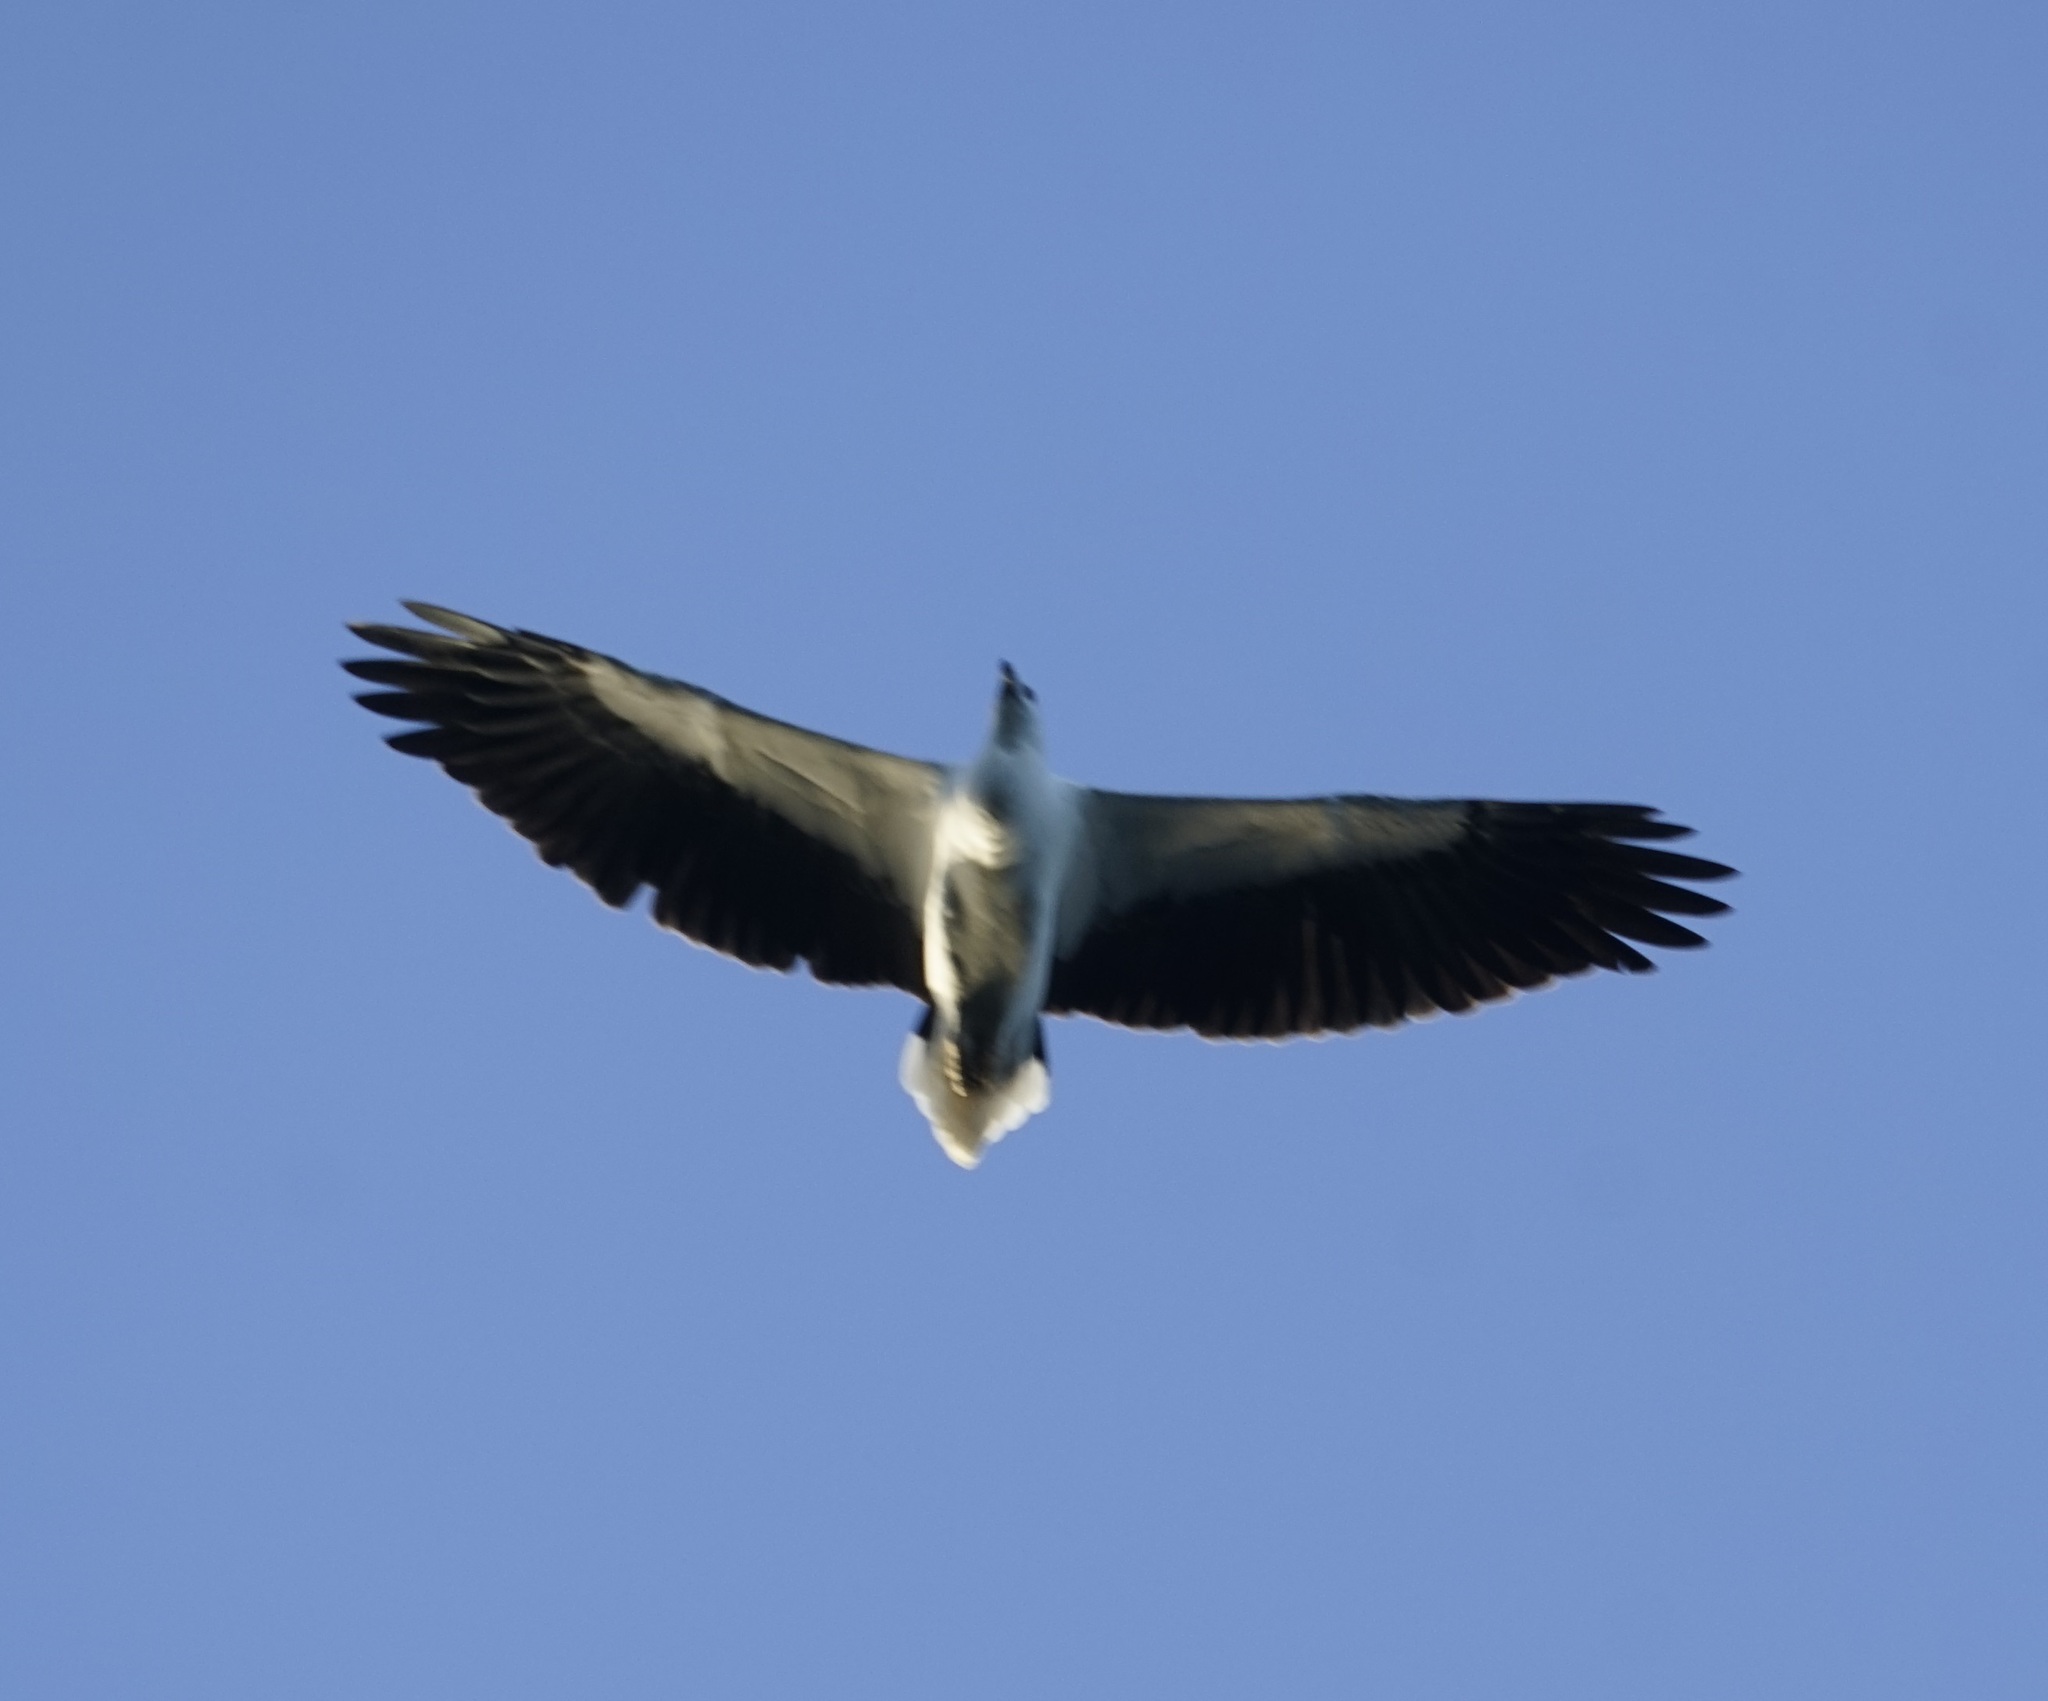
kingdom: Animalia
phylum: Chordata
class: Aves
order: Accipitriformes
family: Accipitridae
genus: Haliaeetus
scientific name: Haliaeetus leucogaster
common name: White-bellied sea eagle
